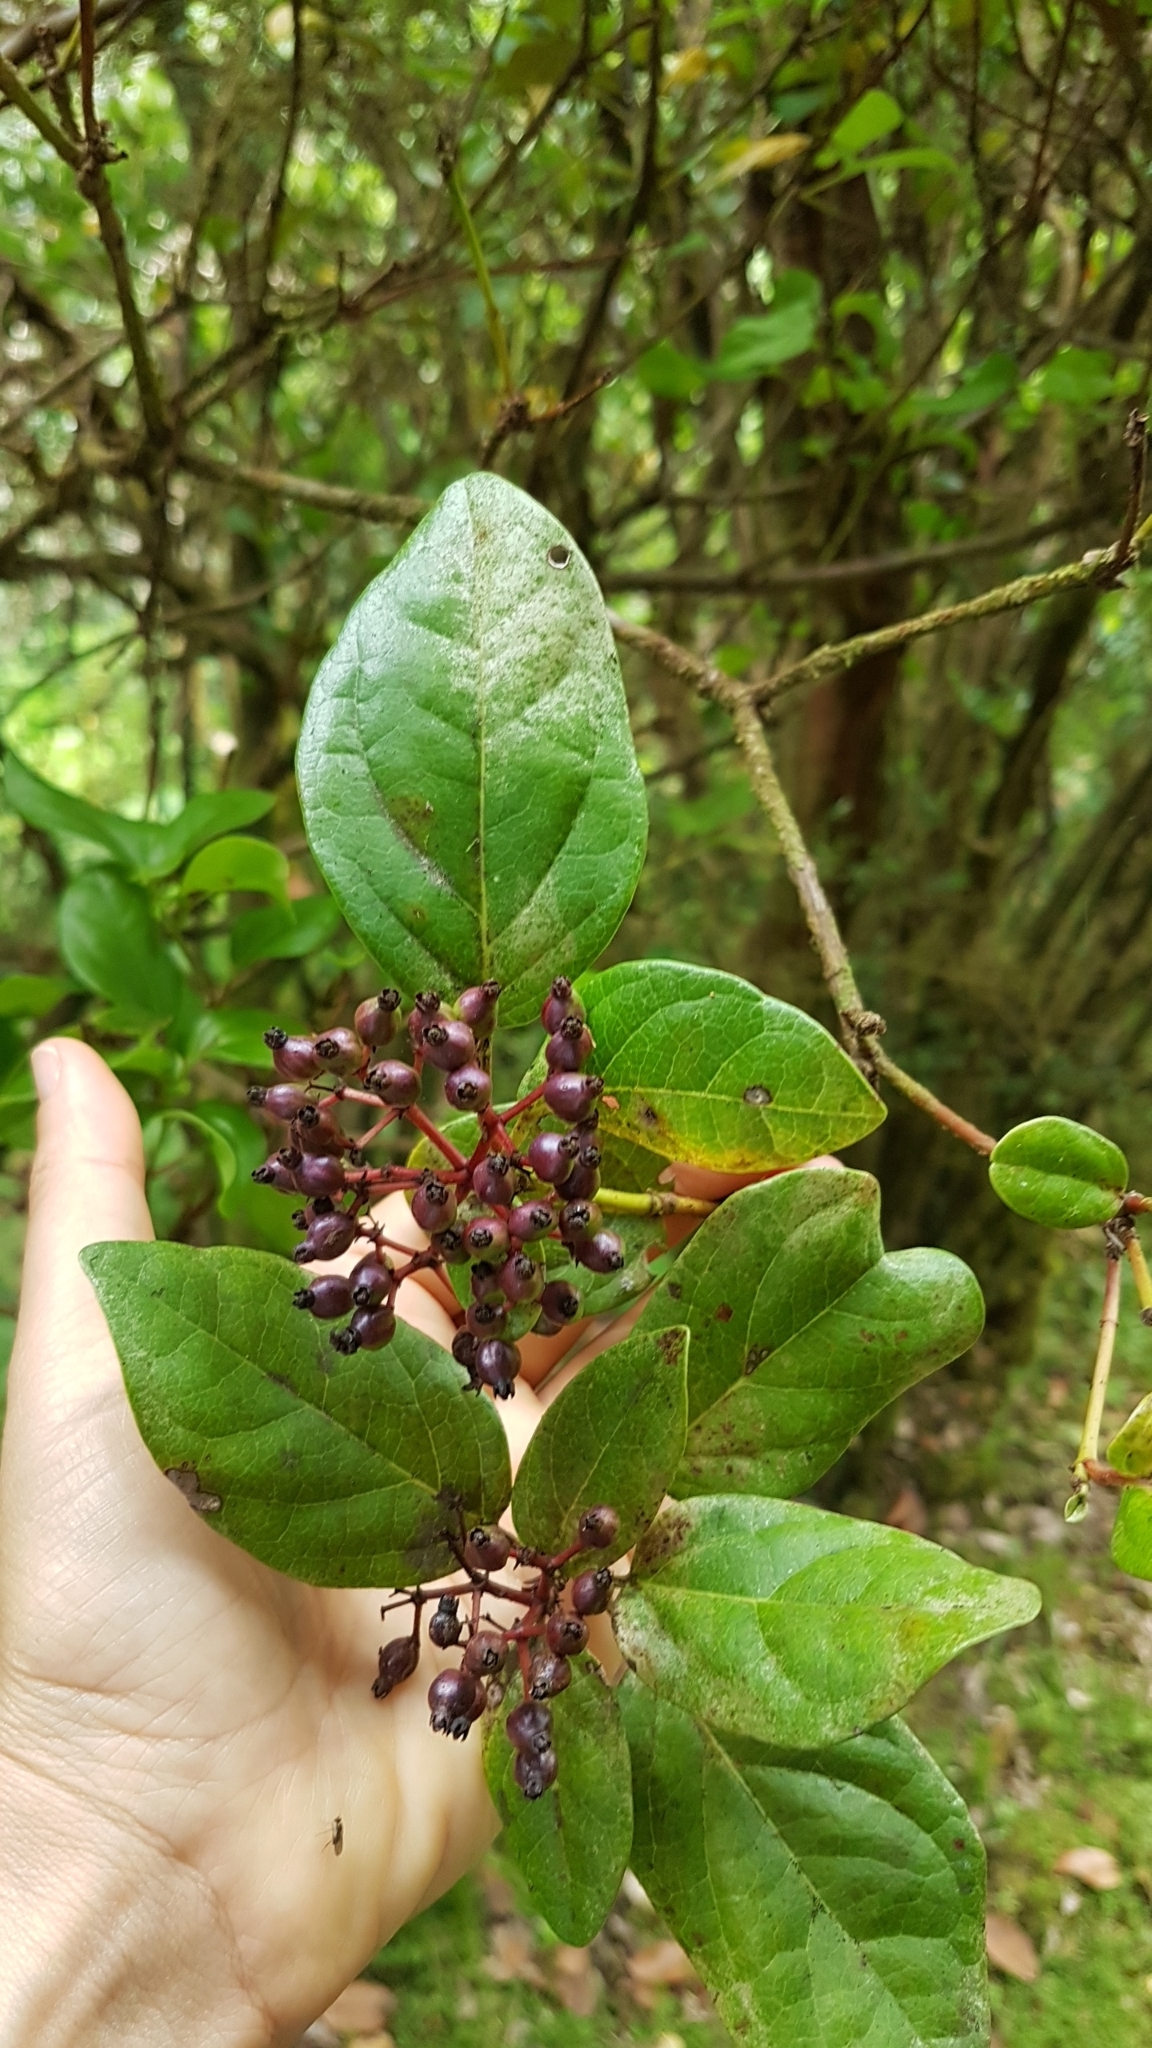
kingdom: Plantae
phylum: Tracheophyta
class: Magnoliopsida
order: Dipsacales
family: Viburnaceae
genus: Viburnum
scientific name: Viburnum treleasei
